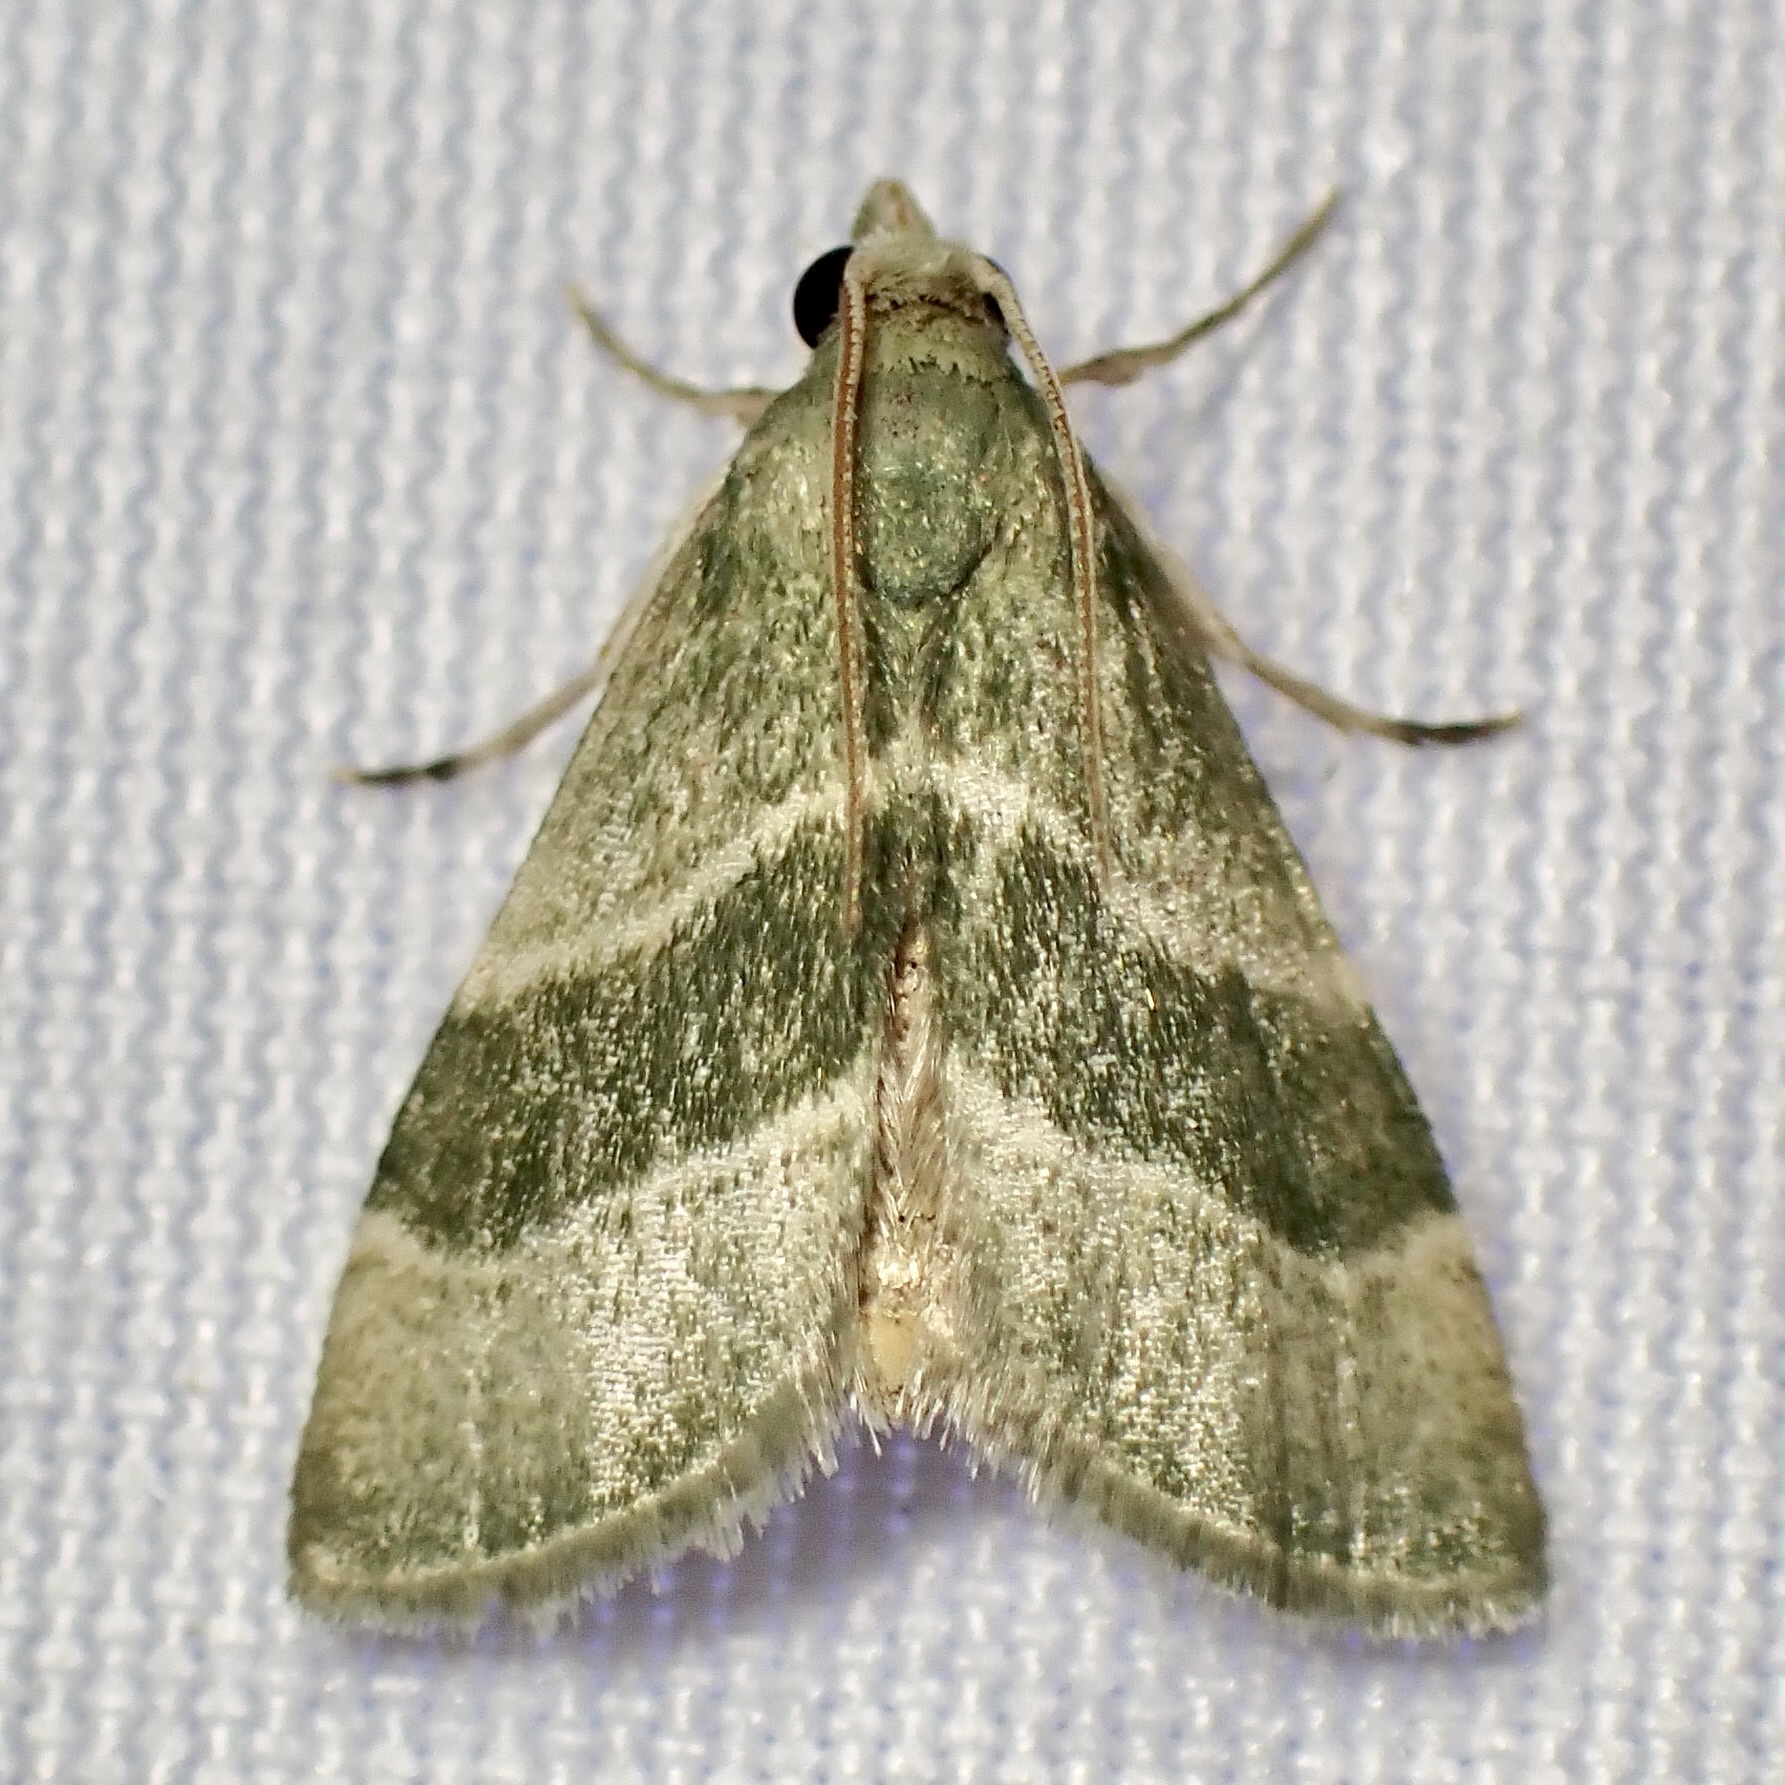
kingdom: Animalia
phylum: Arthropoda
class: Insecta
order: Lepidoptera
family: Pyralidae
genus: Anemosella
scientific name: Anemosella viridalis
